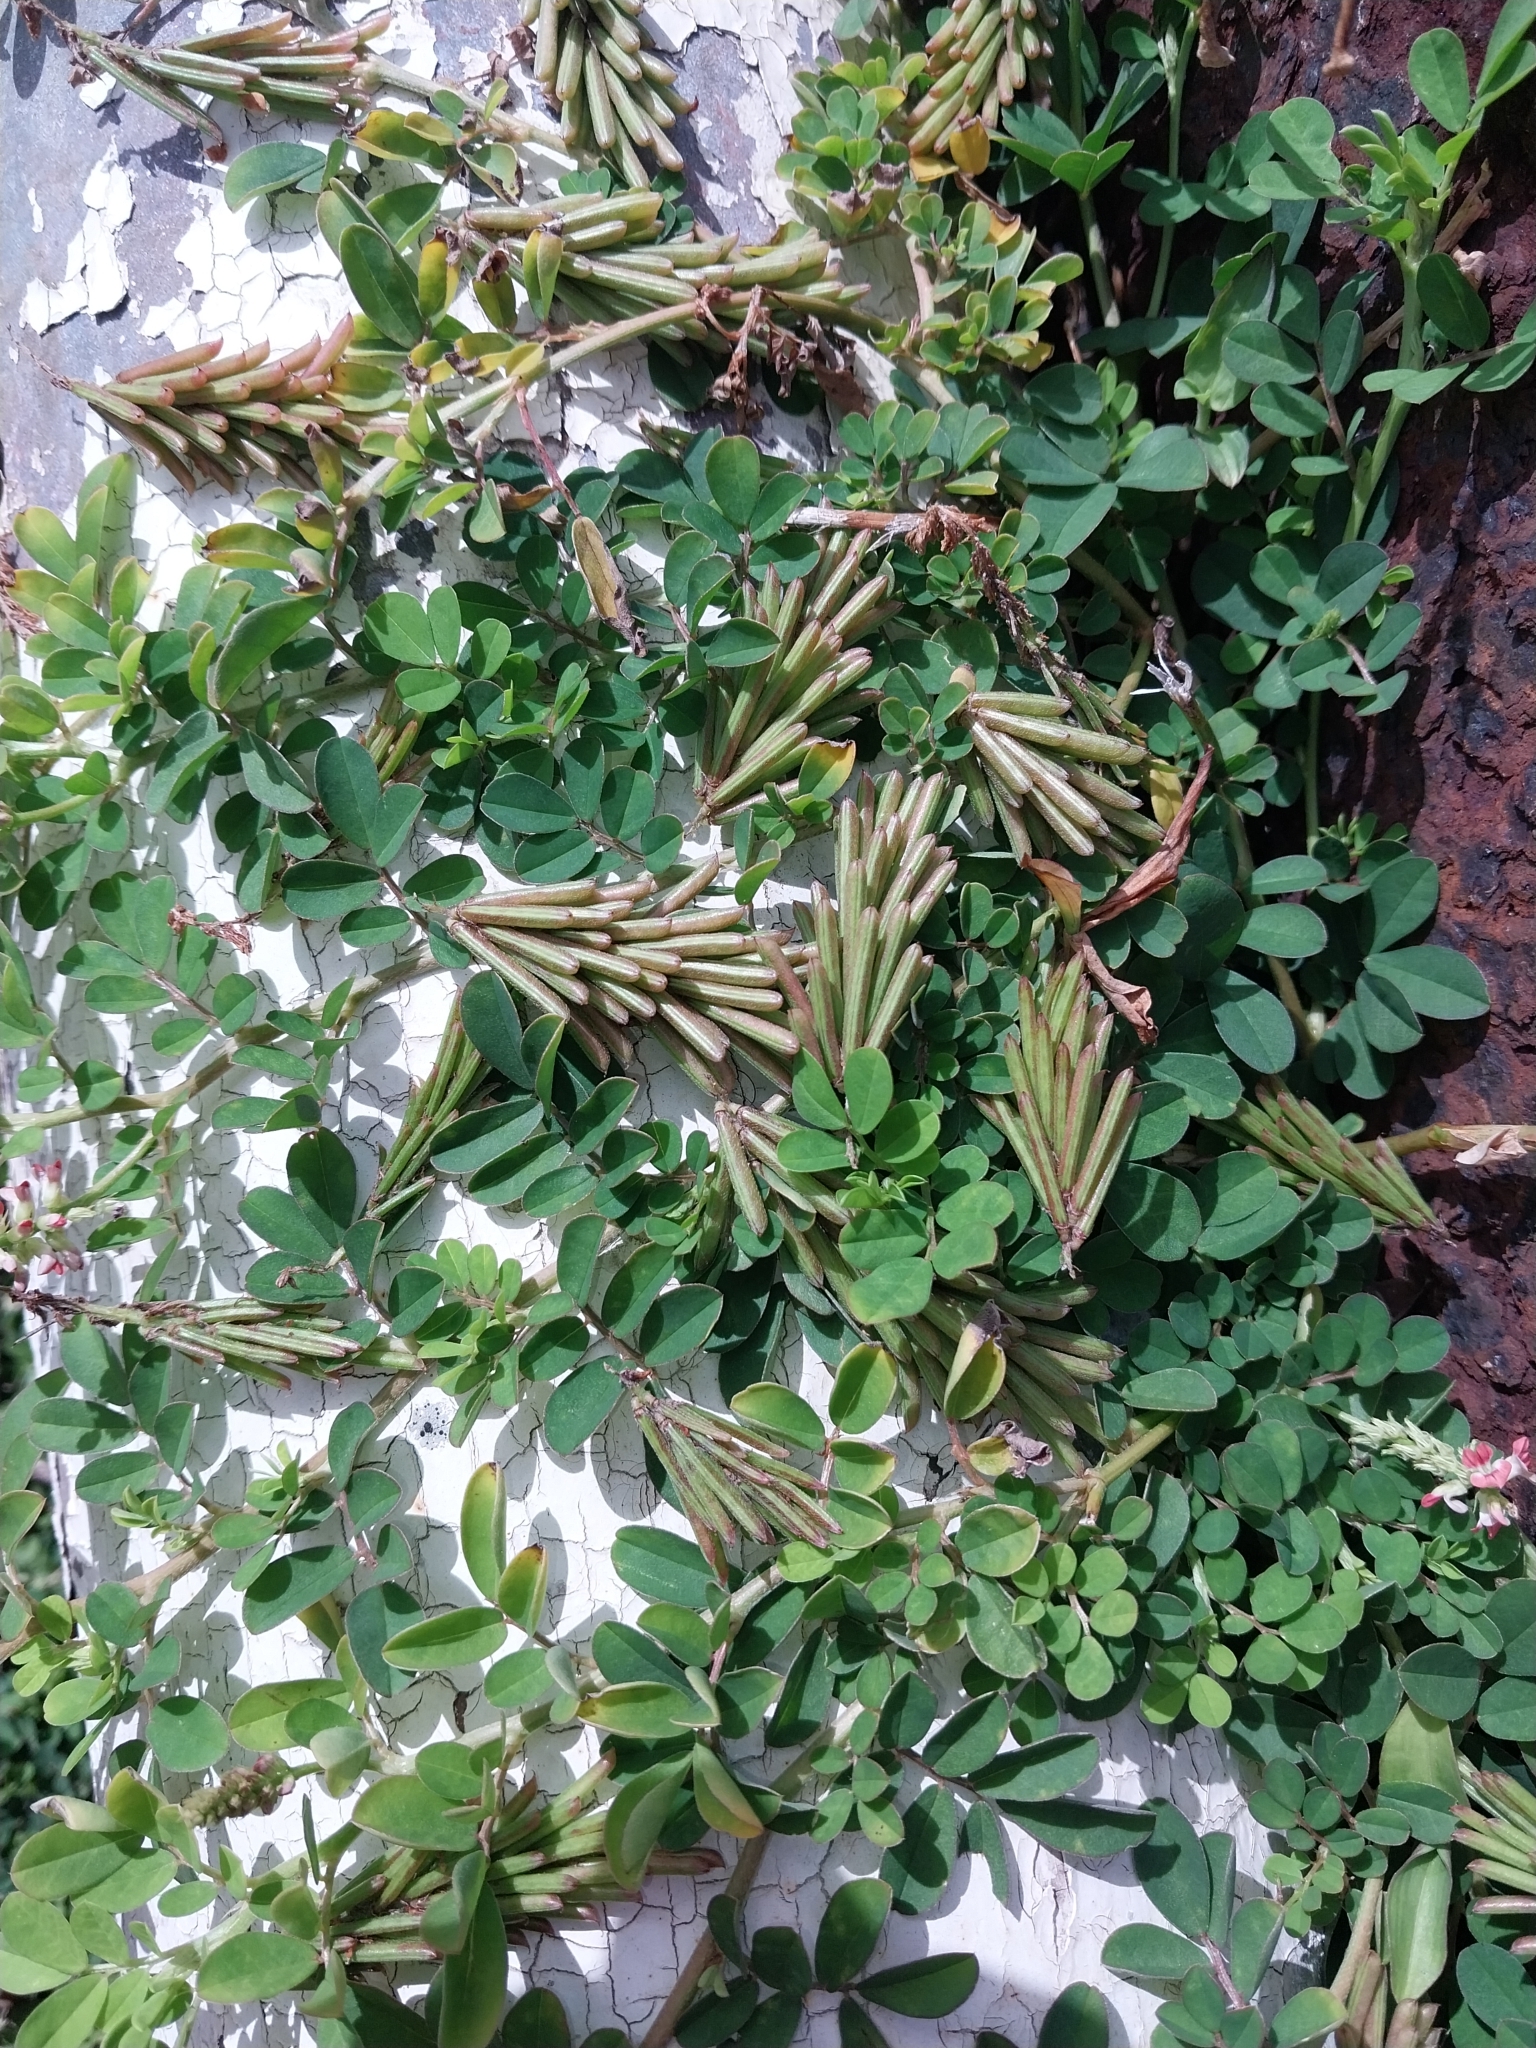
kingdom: Plantae
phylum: Tracheophyta
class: Magnoliopsida
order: Fabales
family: Fabaceae
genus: Indigofera
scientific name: Indigofera spicata
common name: Creeping indigo
